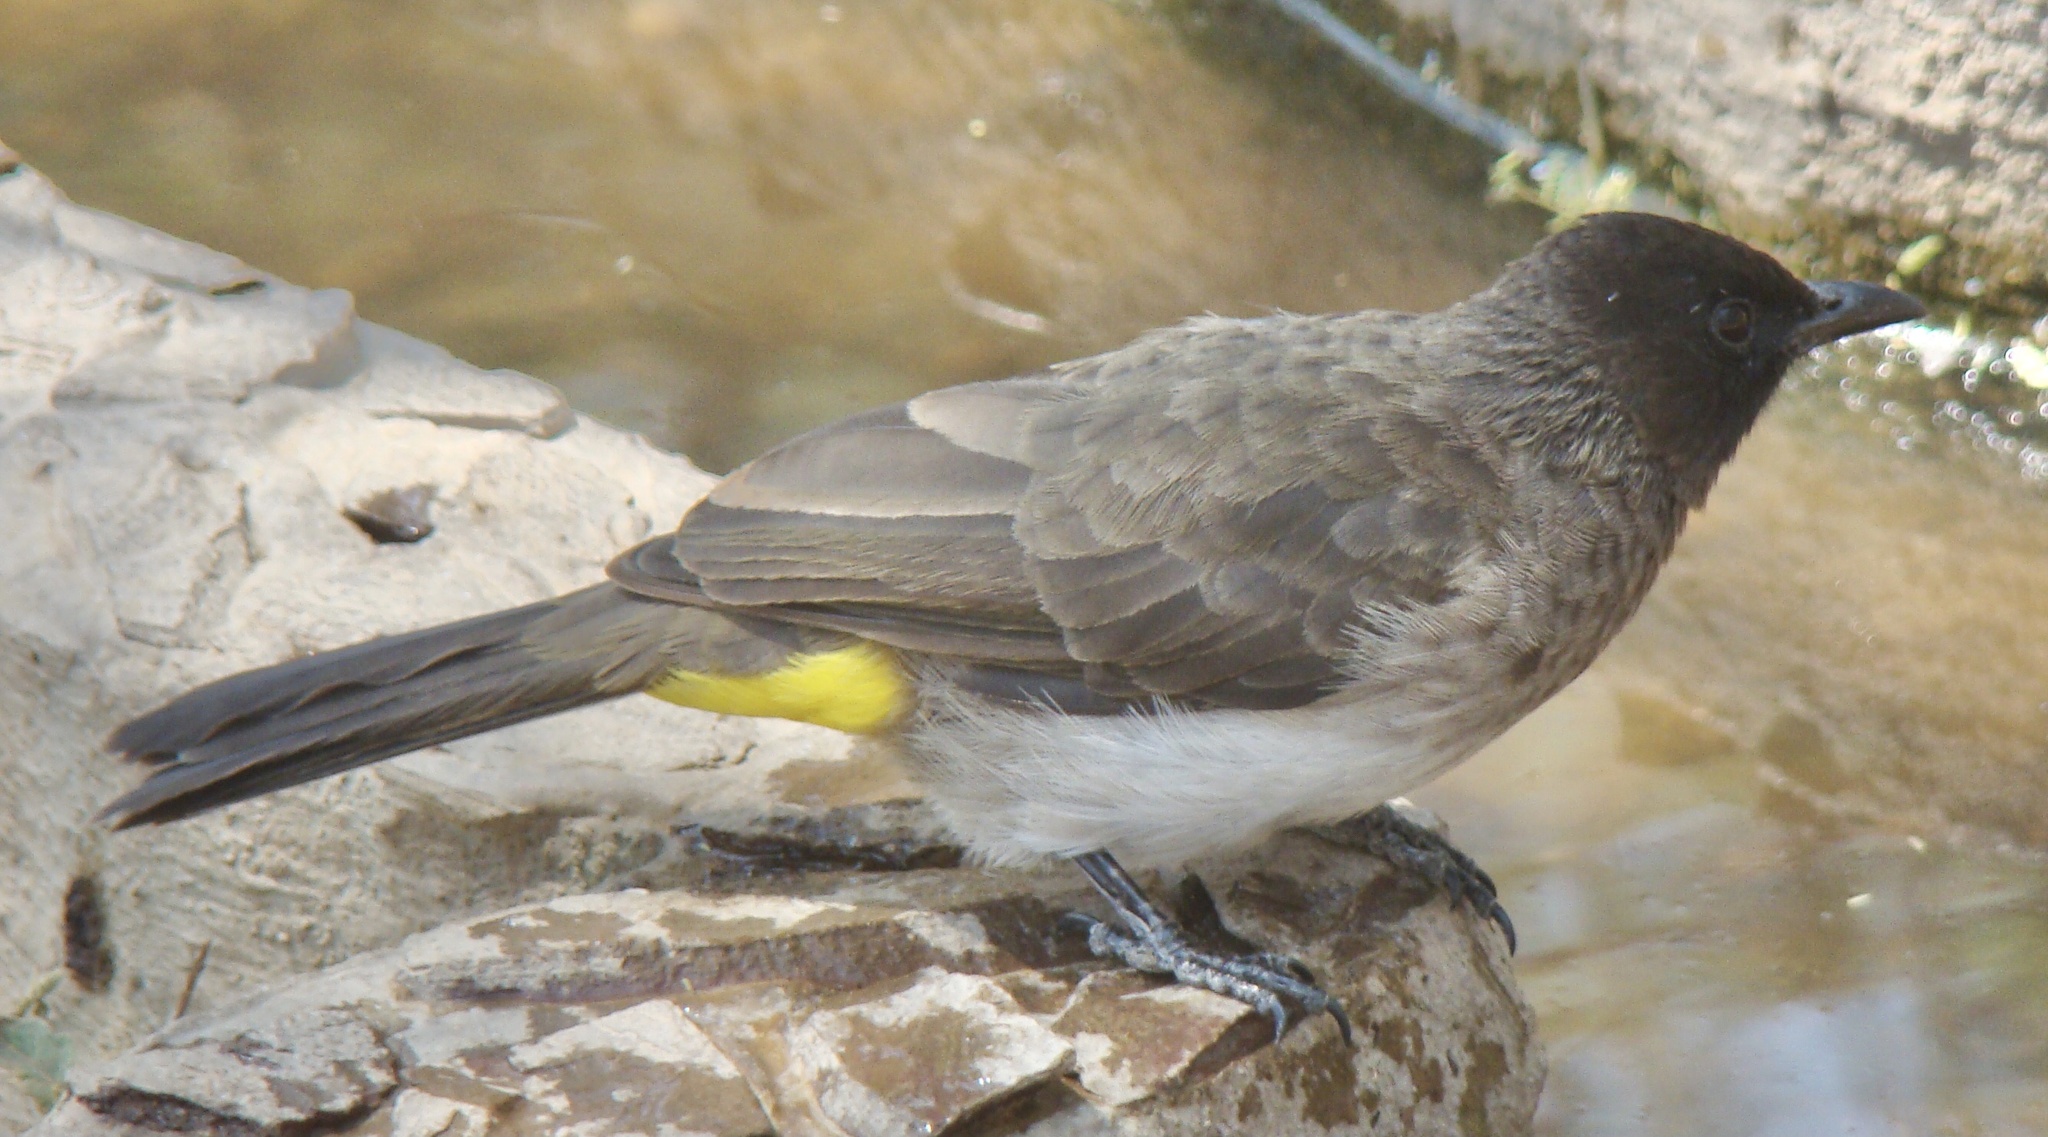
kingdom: Animalia
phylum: Chordata
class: Aves
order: Passeriformes
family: Pycnonotidae
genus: Pycnonotus
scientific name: Pycnonotus barbatus
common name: Common bulbul
